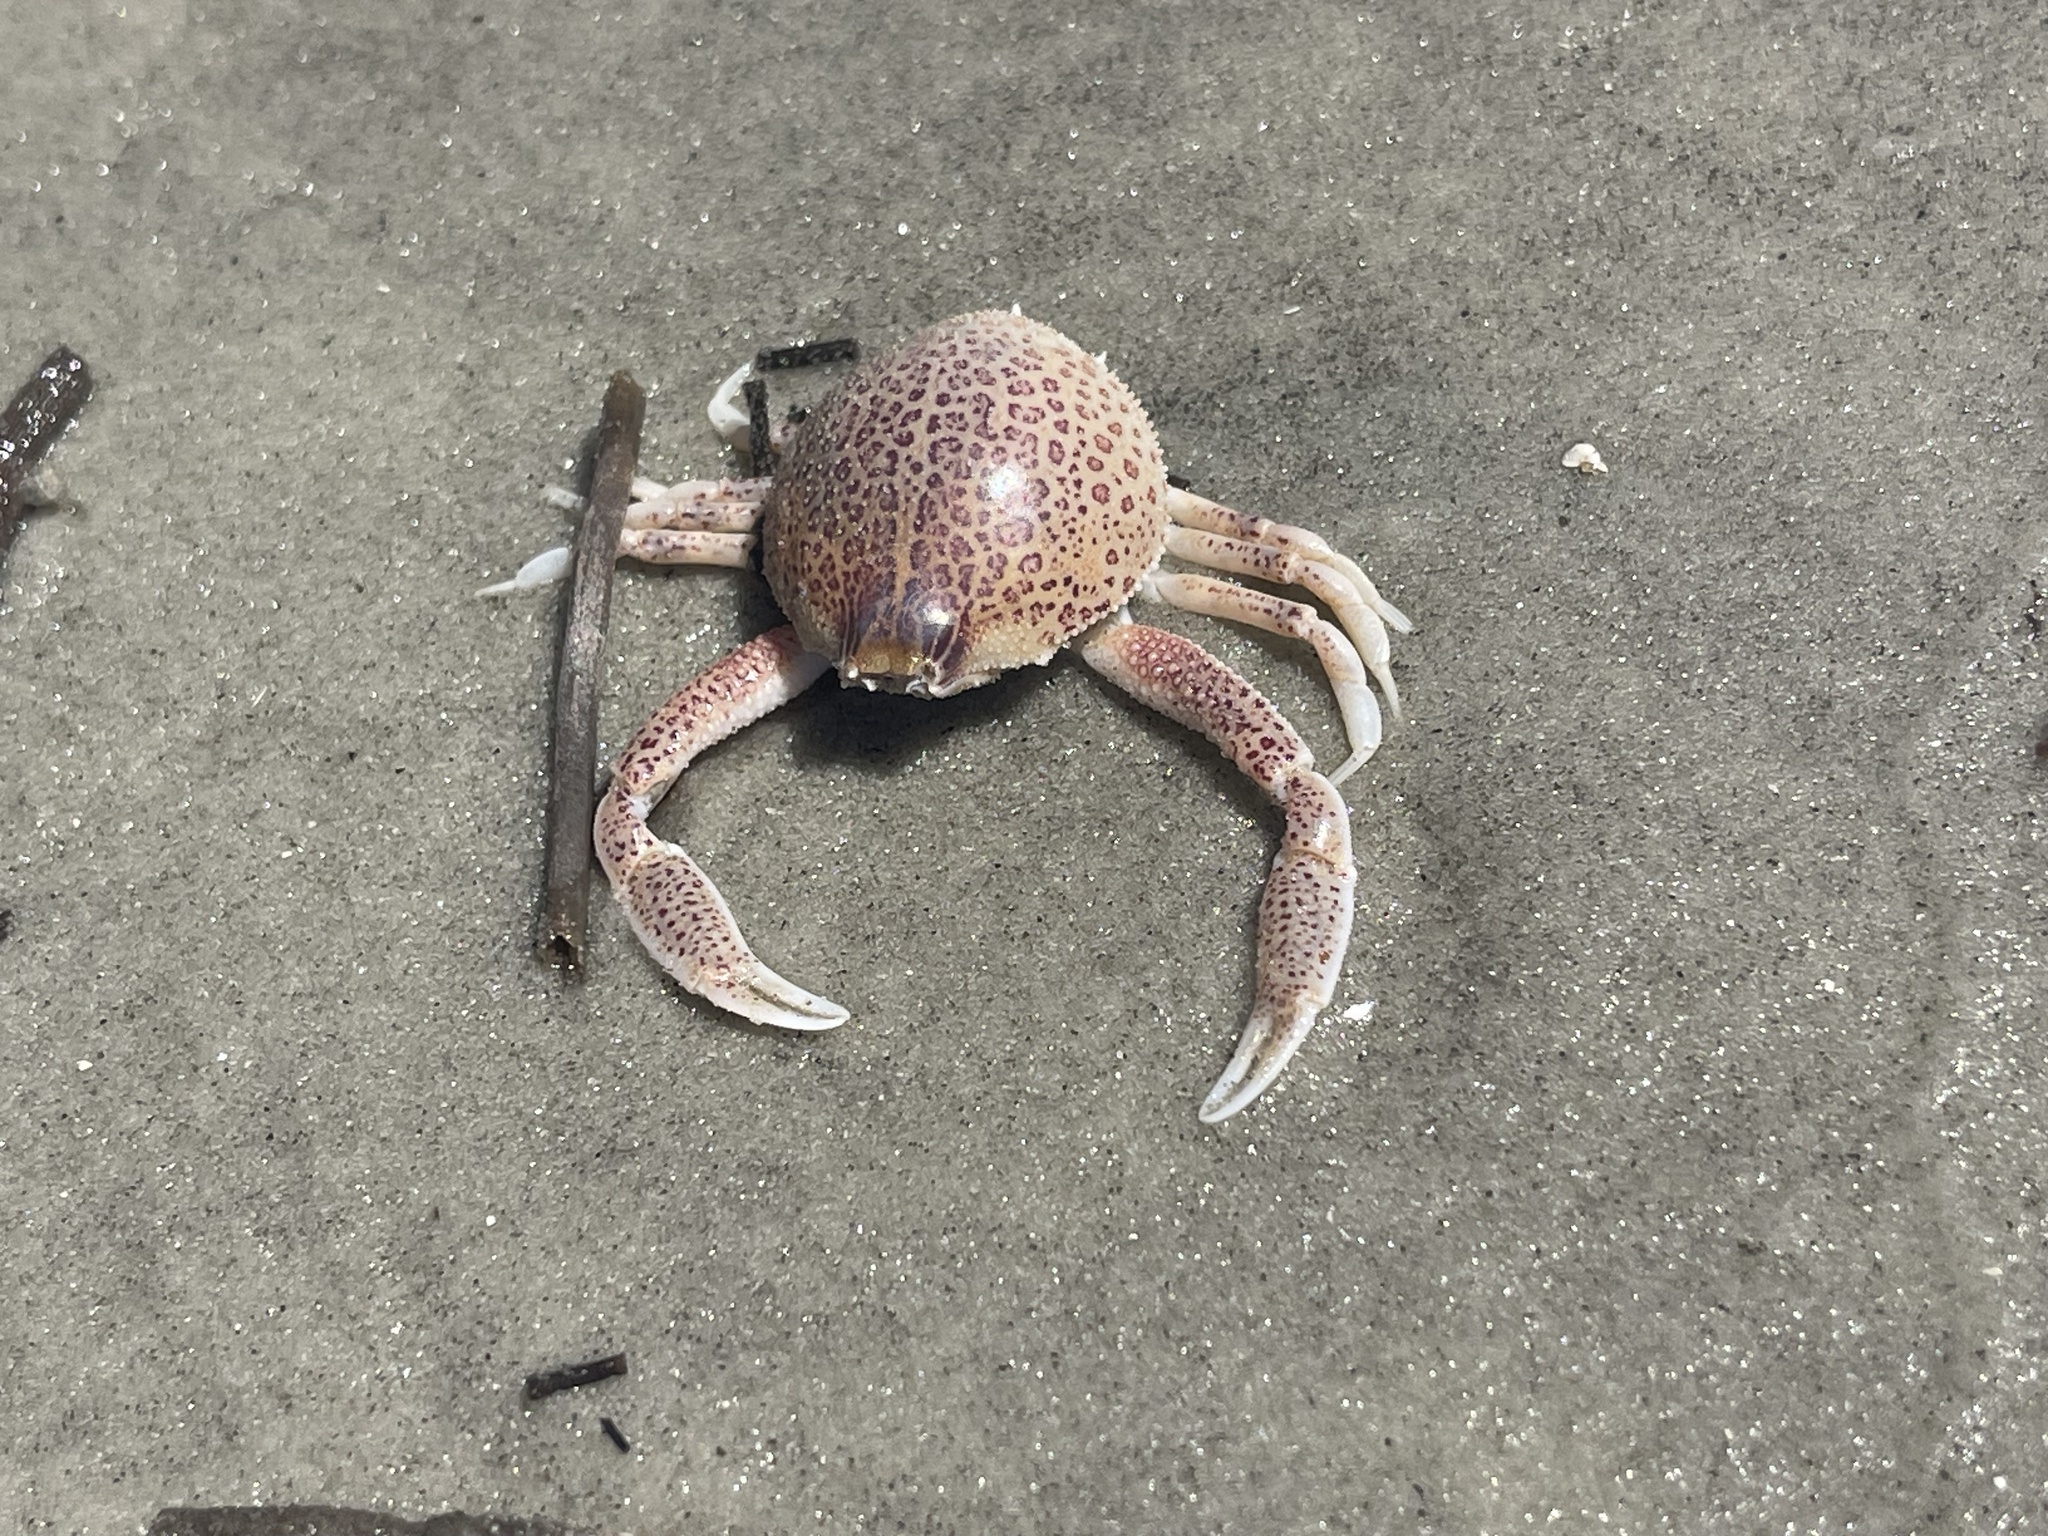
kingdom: Animalia
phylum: Arthropoda
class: Malacostraca
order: Decapoda
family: Leucosiidae
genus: Persephona
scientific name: Persephona aquilonaris
